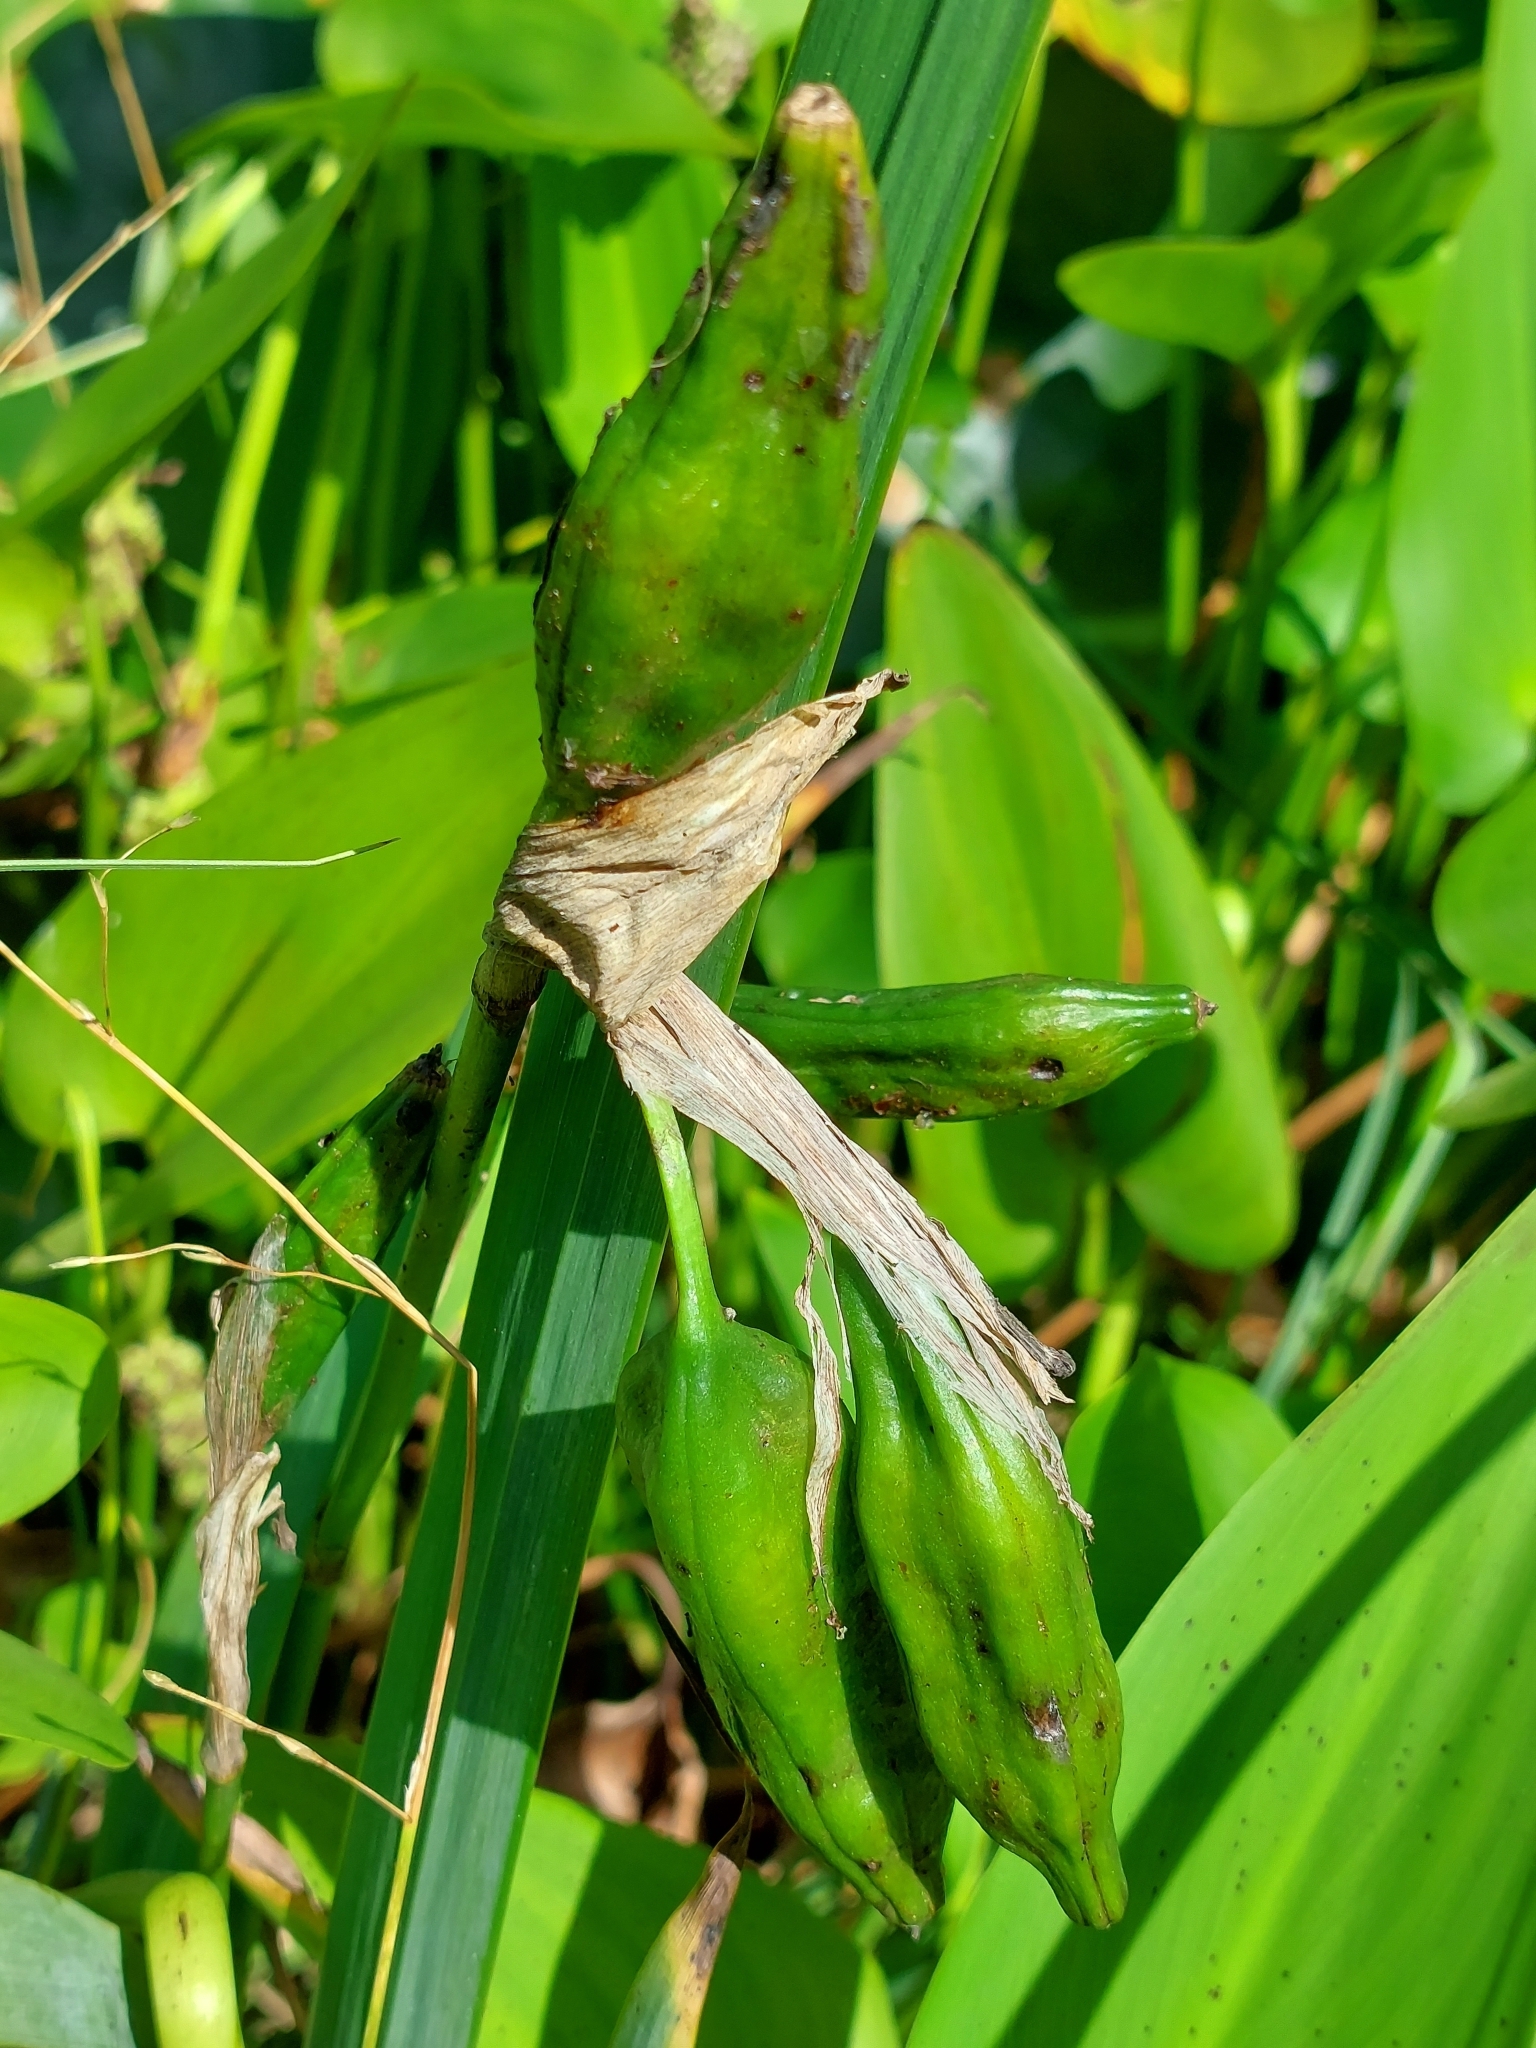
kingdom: Plantae
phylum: Tracheophyta
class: Liliopsida
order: Asparagales
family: Iridaceae
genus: Iris
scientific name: Iris pseudacorus
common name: Yellow flag
